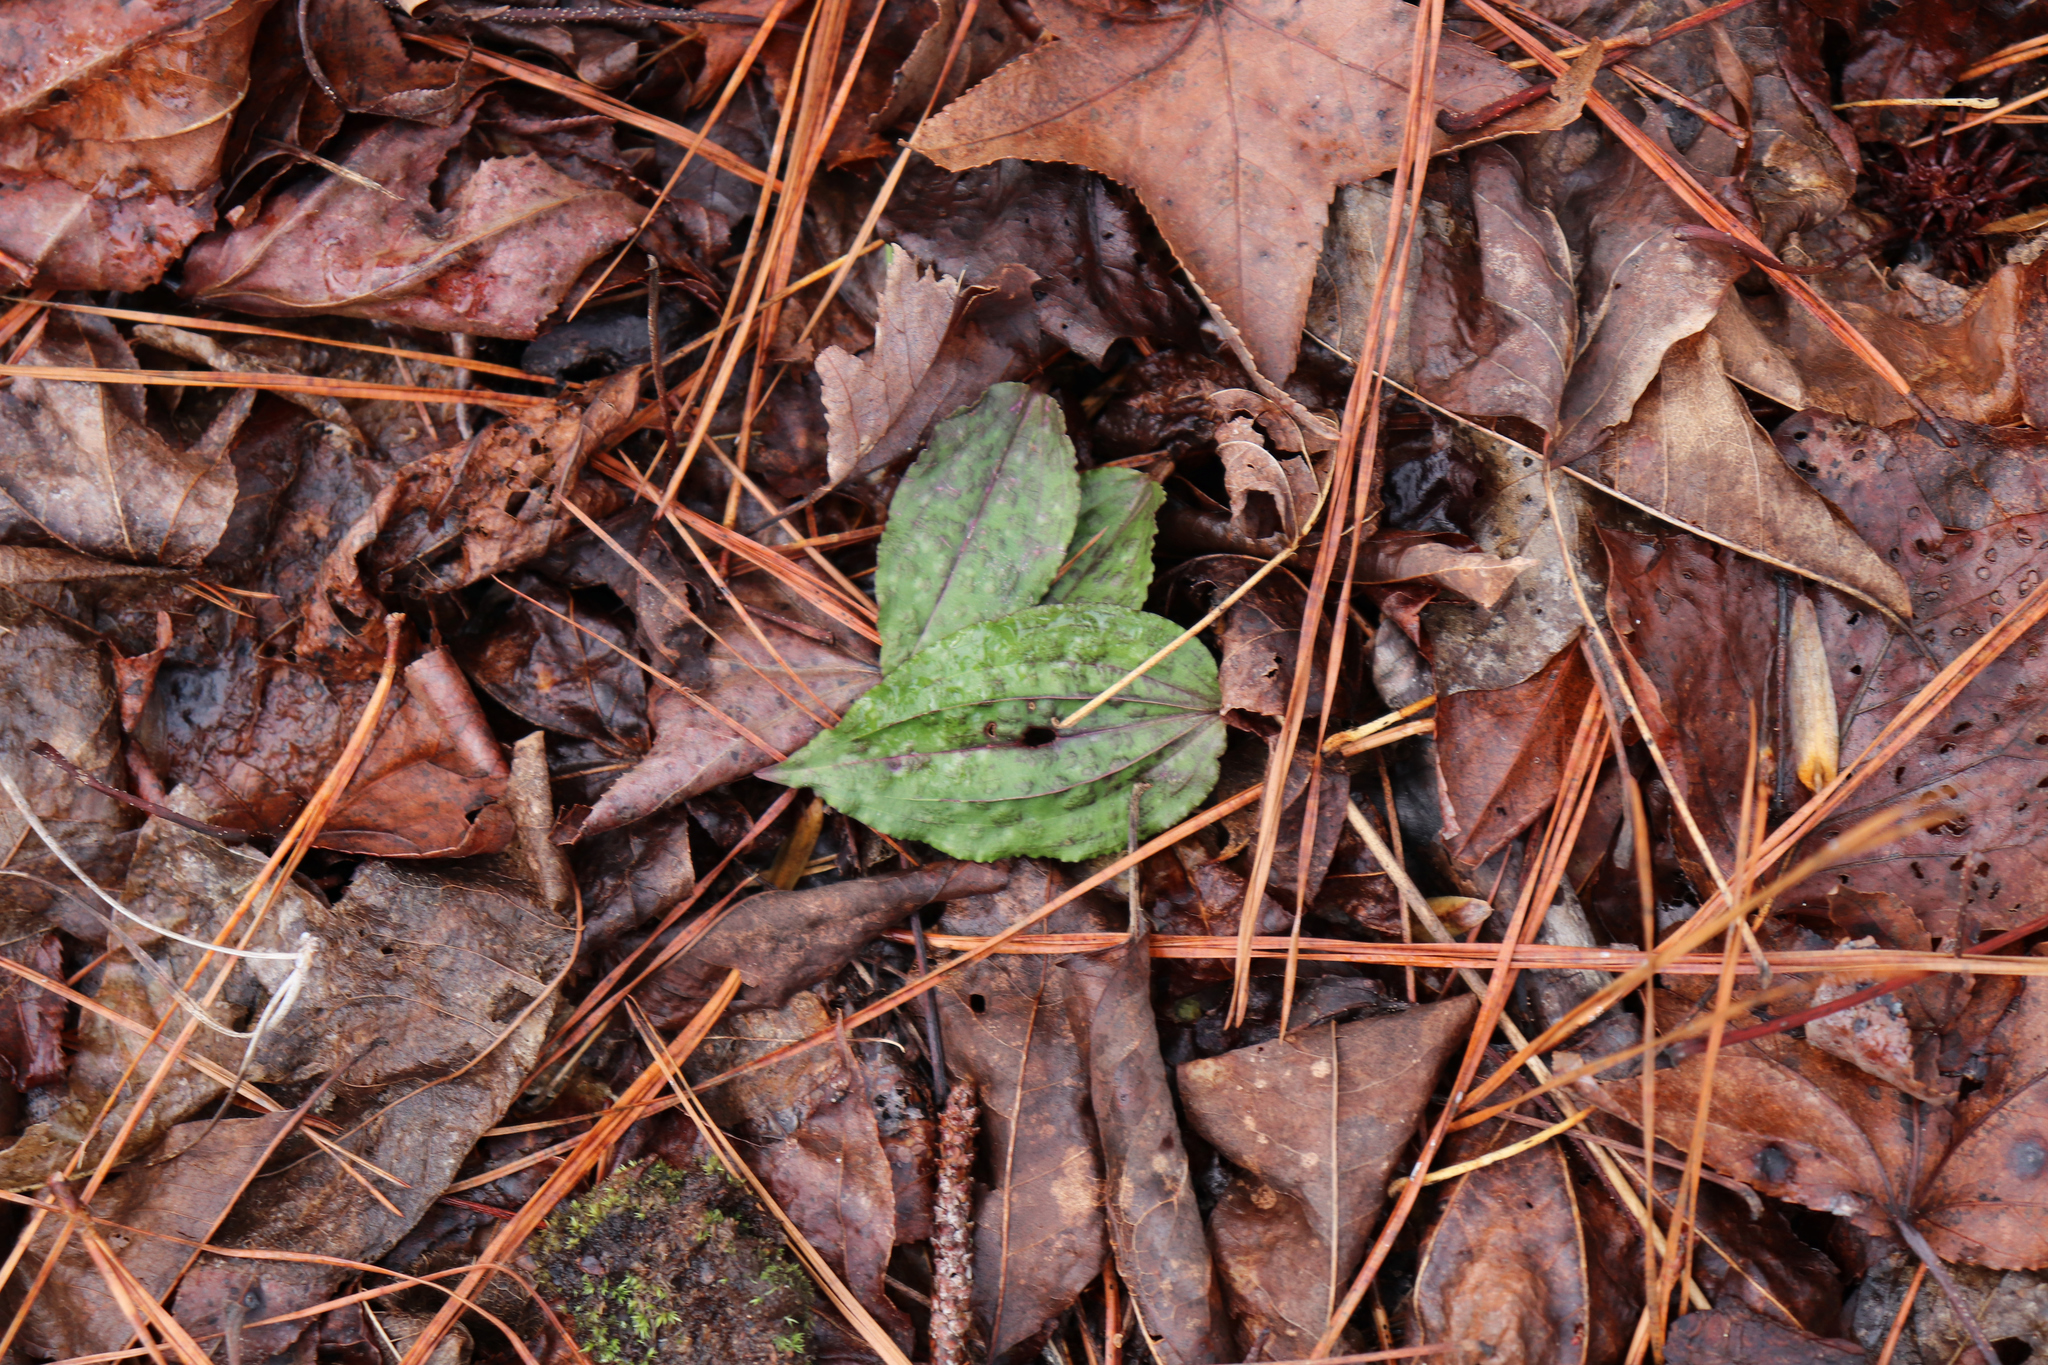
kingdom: Plantae
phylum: Tracheophyta
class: Liliopsida
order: Asparagales
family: Orchidaceae
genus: Tipularia
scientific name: Tipularia discolor
